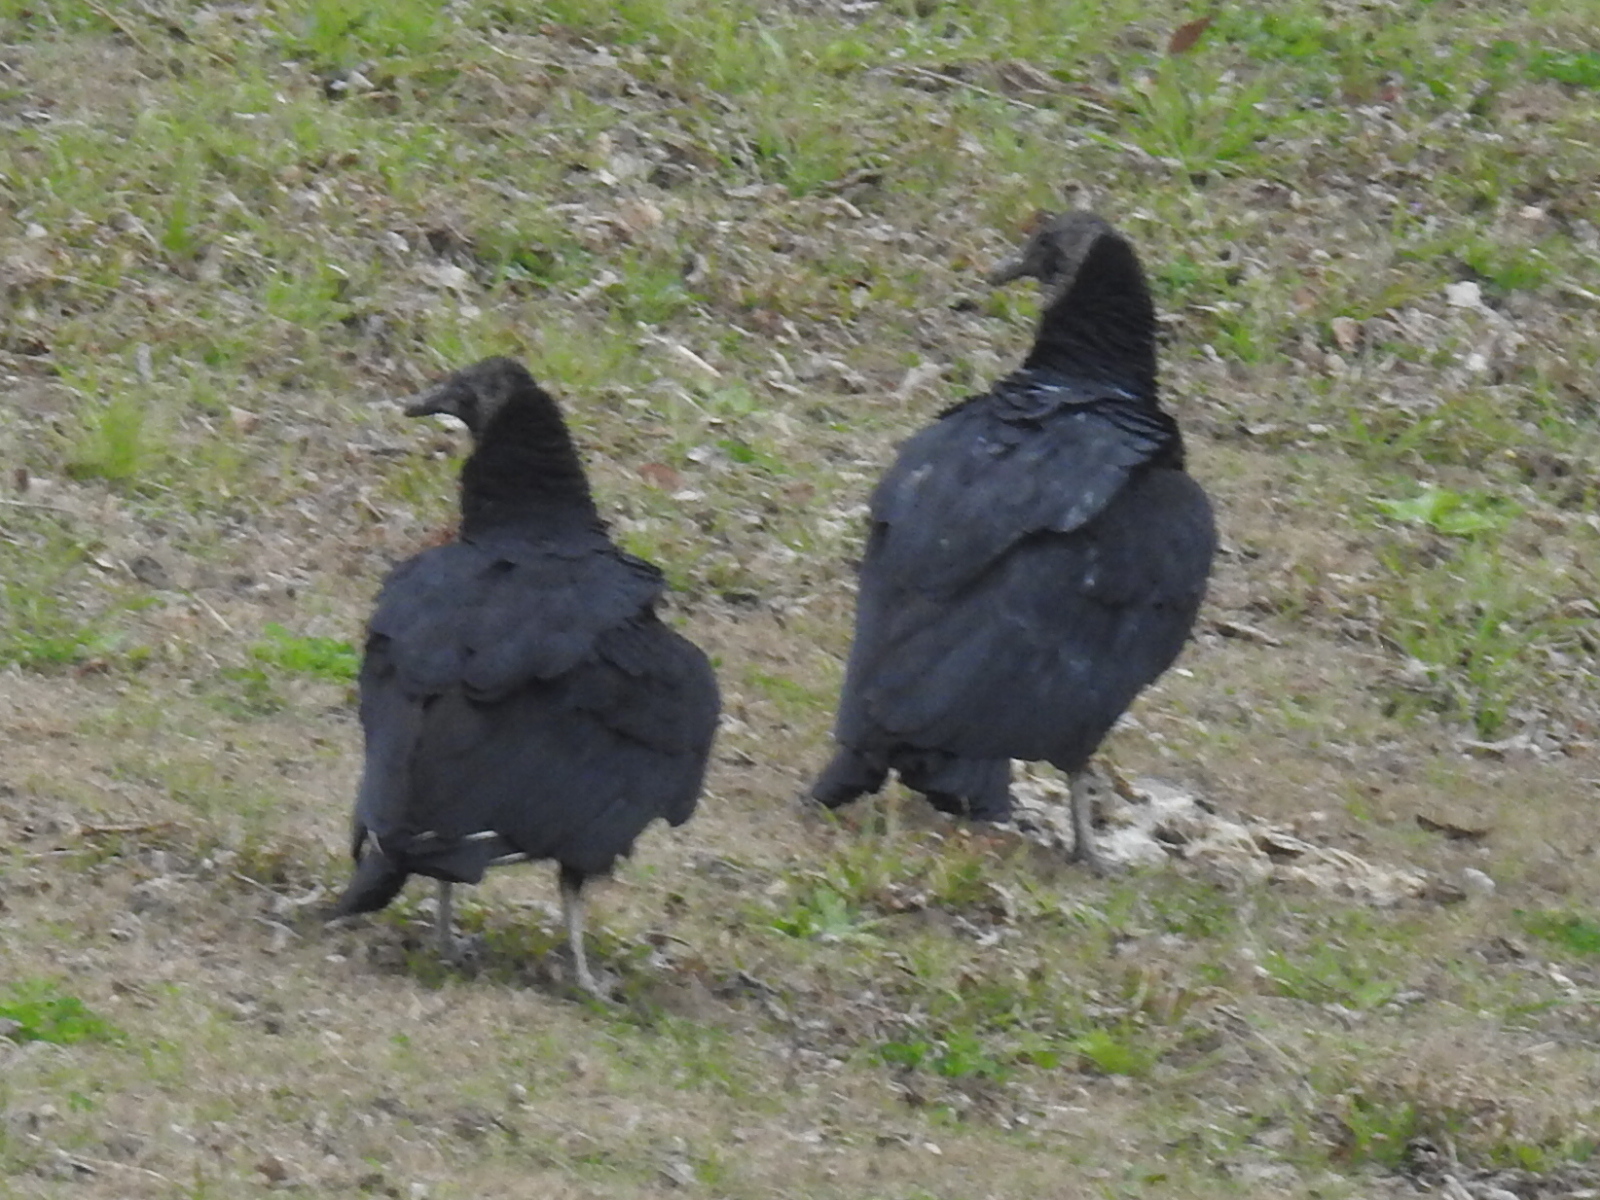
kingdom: Animalia
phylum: Chordata
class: Aves
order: Accipitriformes
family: Cathartidae
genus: Coragyps
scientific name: Coragyps atratus
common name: Black vulture
